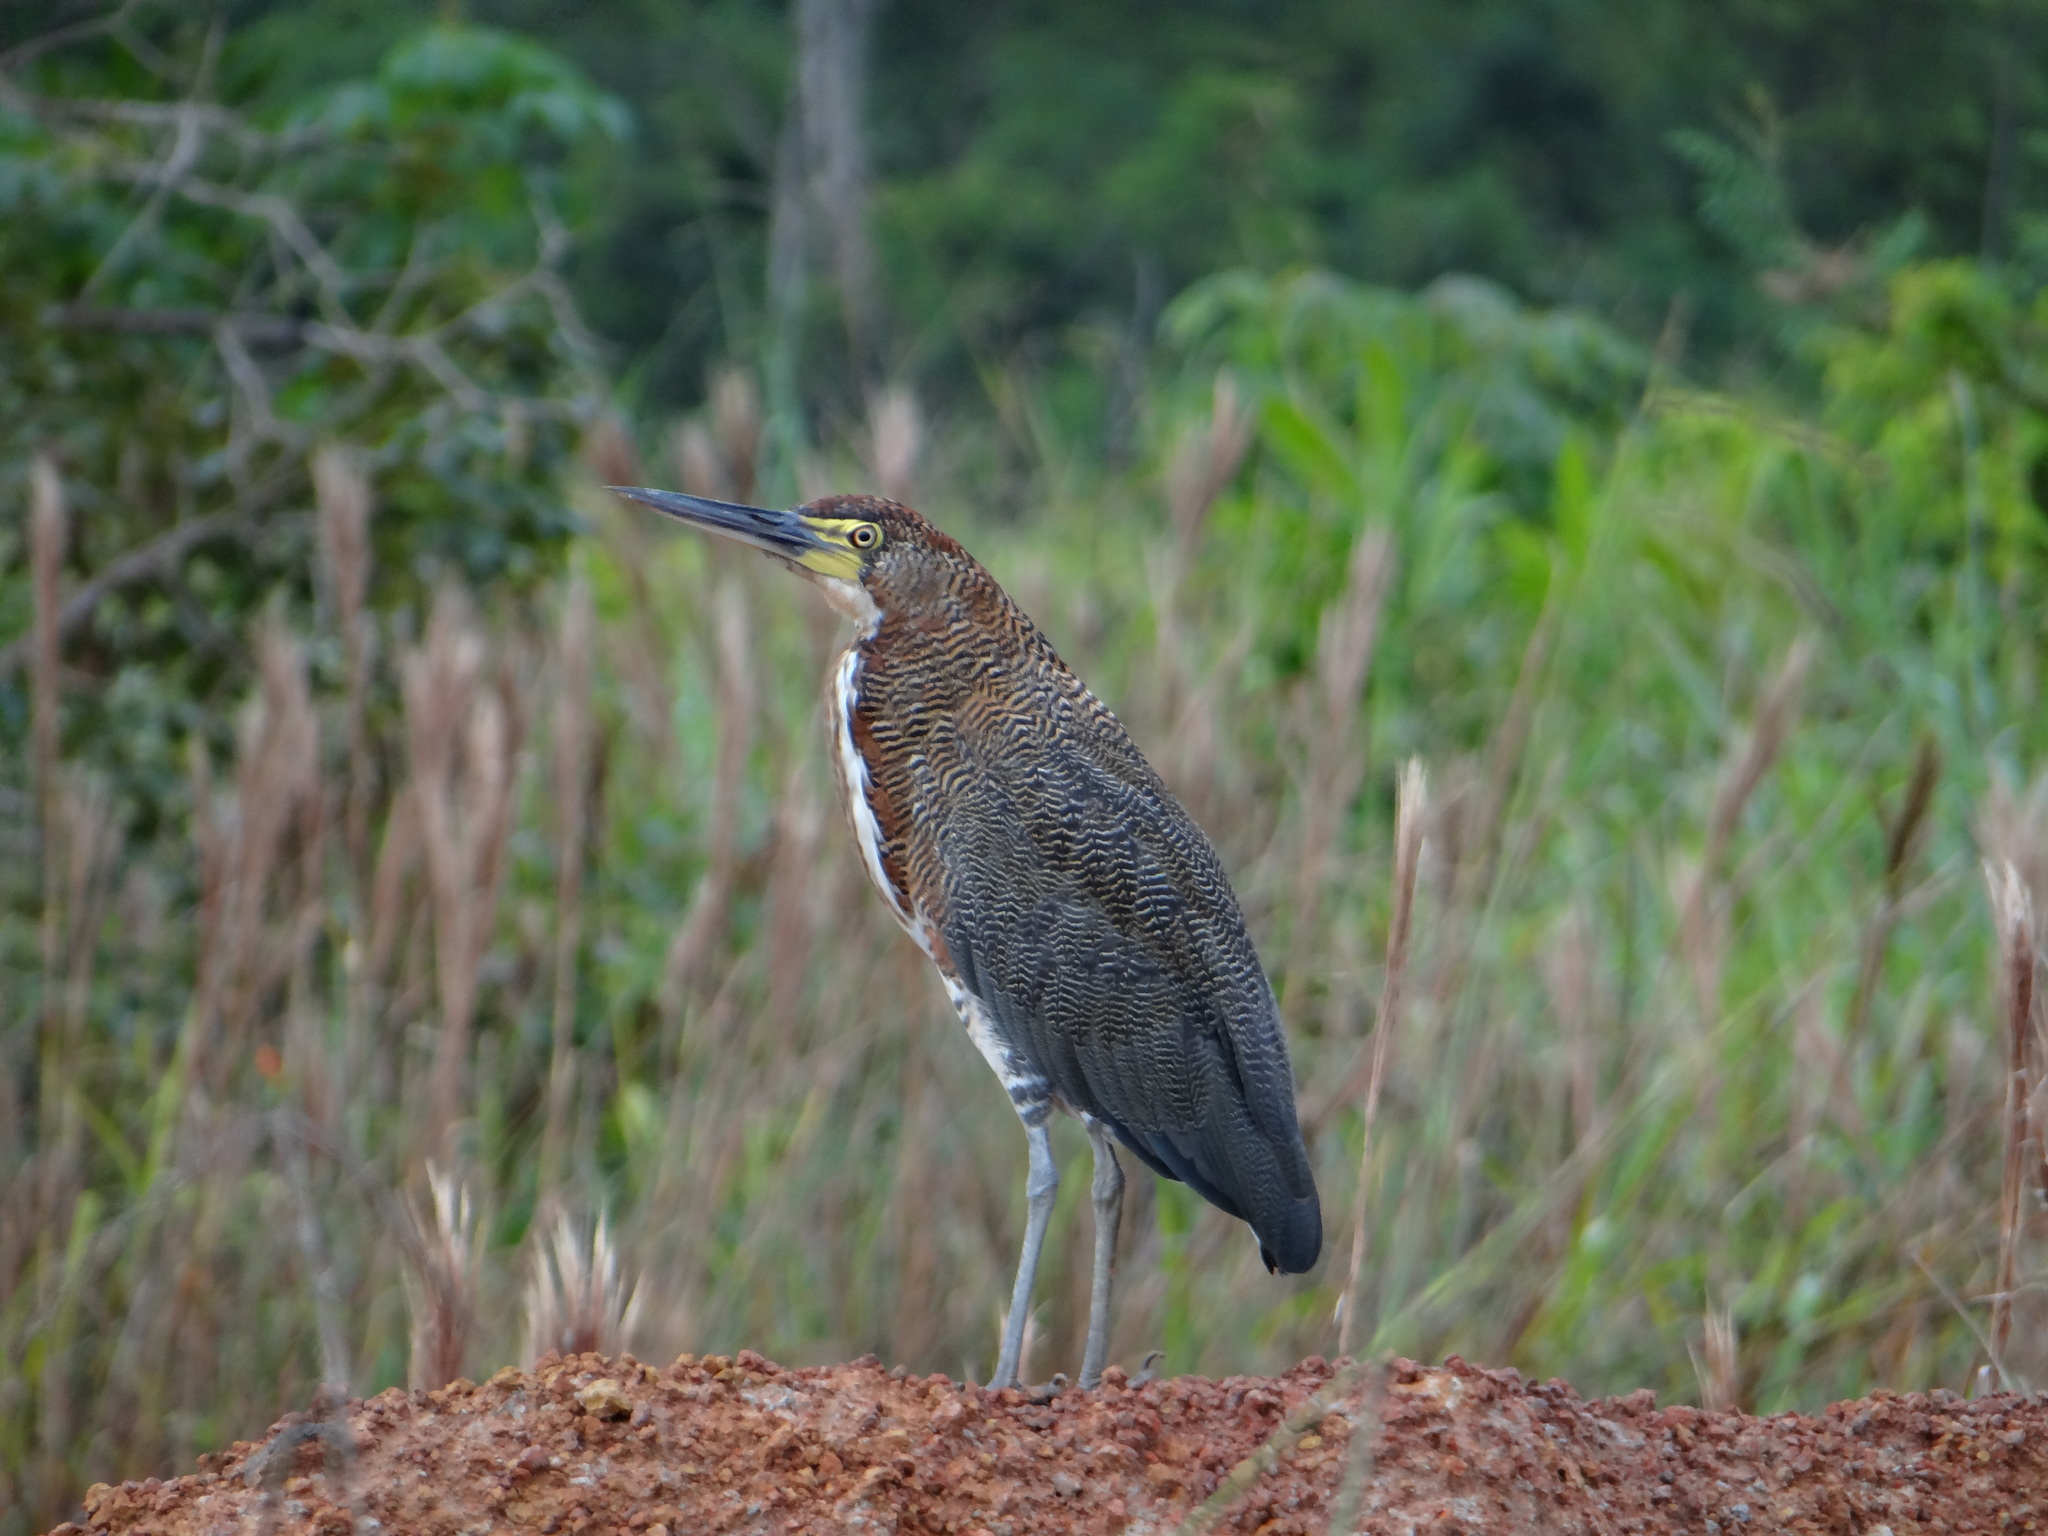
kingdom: Animalia
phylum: Chordata
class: Aves
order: Pelecaniformes
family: Ardeidae
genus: Tigrisoma
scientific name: Tigrisoma lineatum
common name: Rufescent tiger-heron
